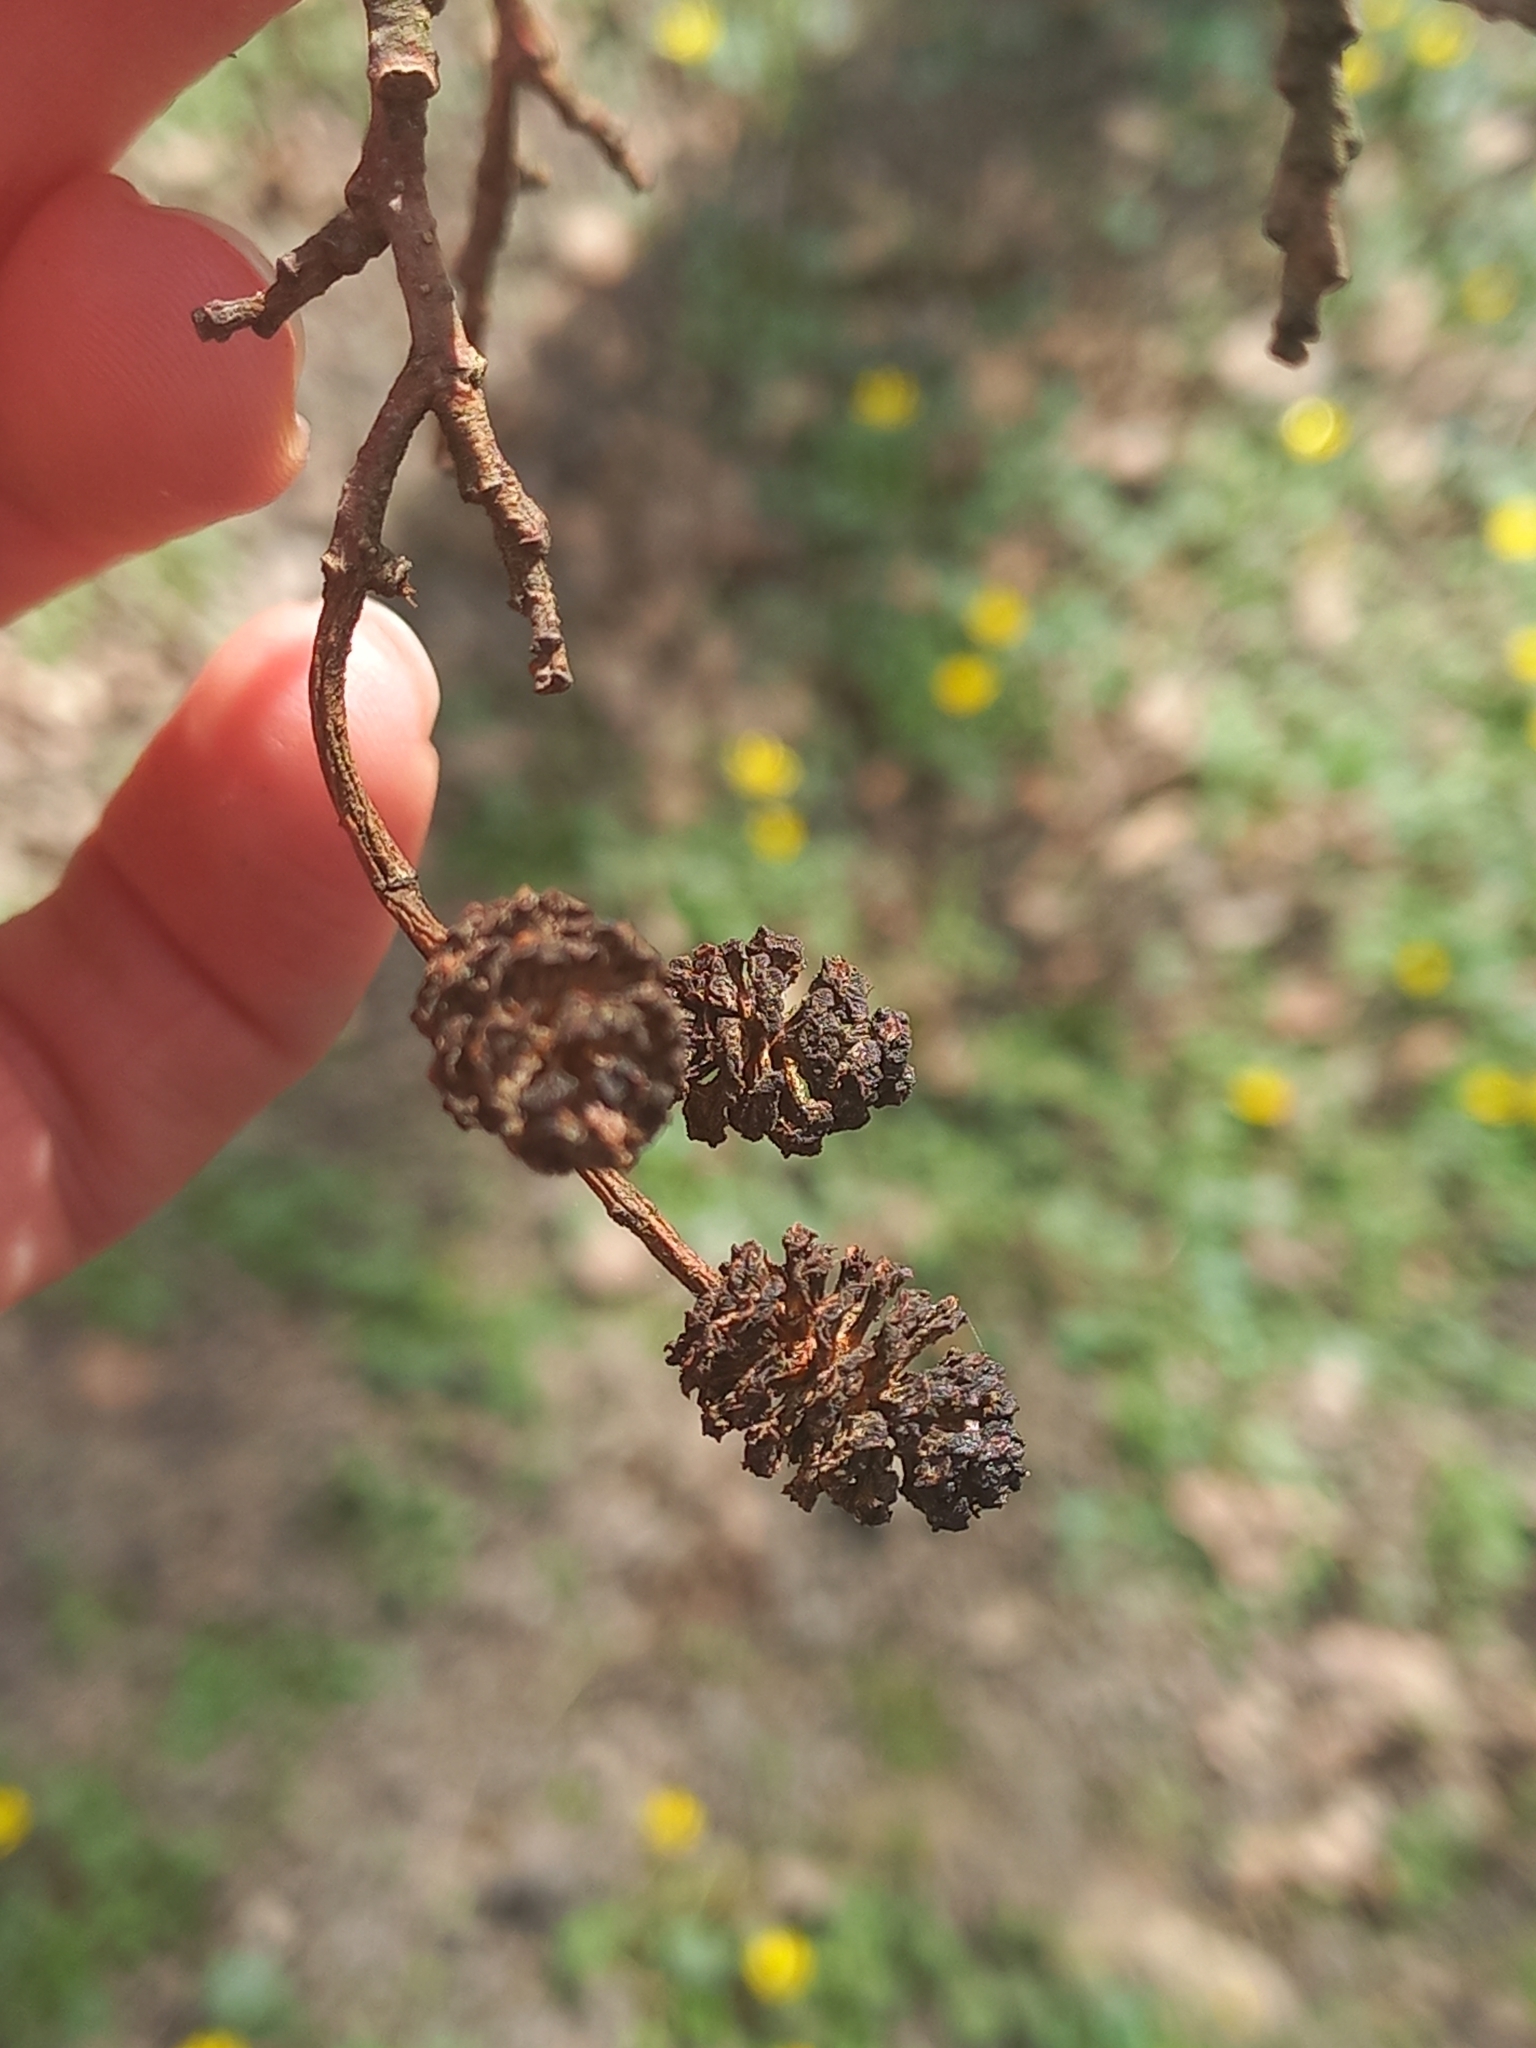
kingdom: Plantae
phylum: Tracheophyta
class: Magnoliopsida
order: Fagales
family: Betulaceae
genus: Alnus
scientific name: Alnus glutinosa
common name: Black alder
